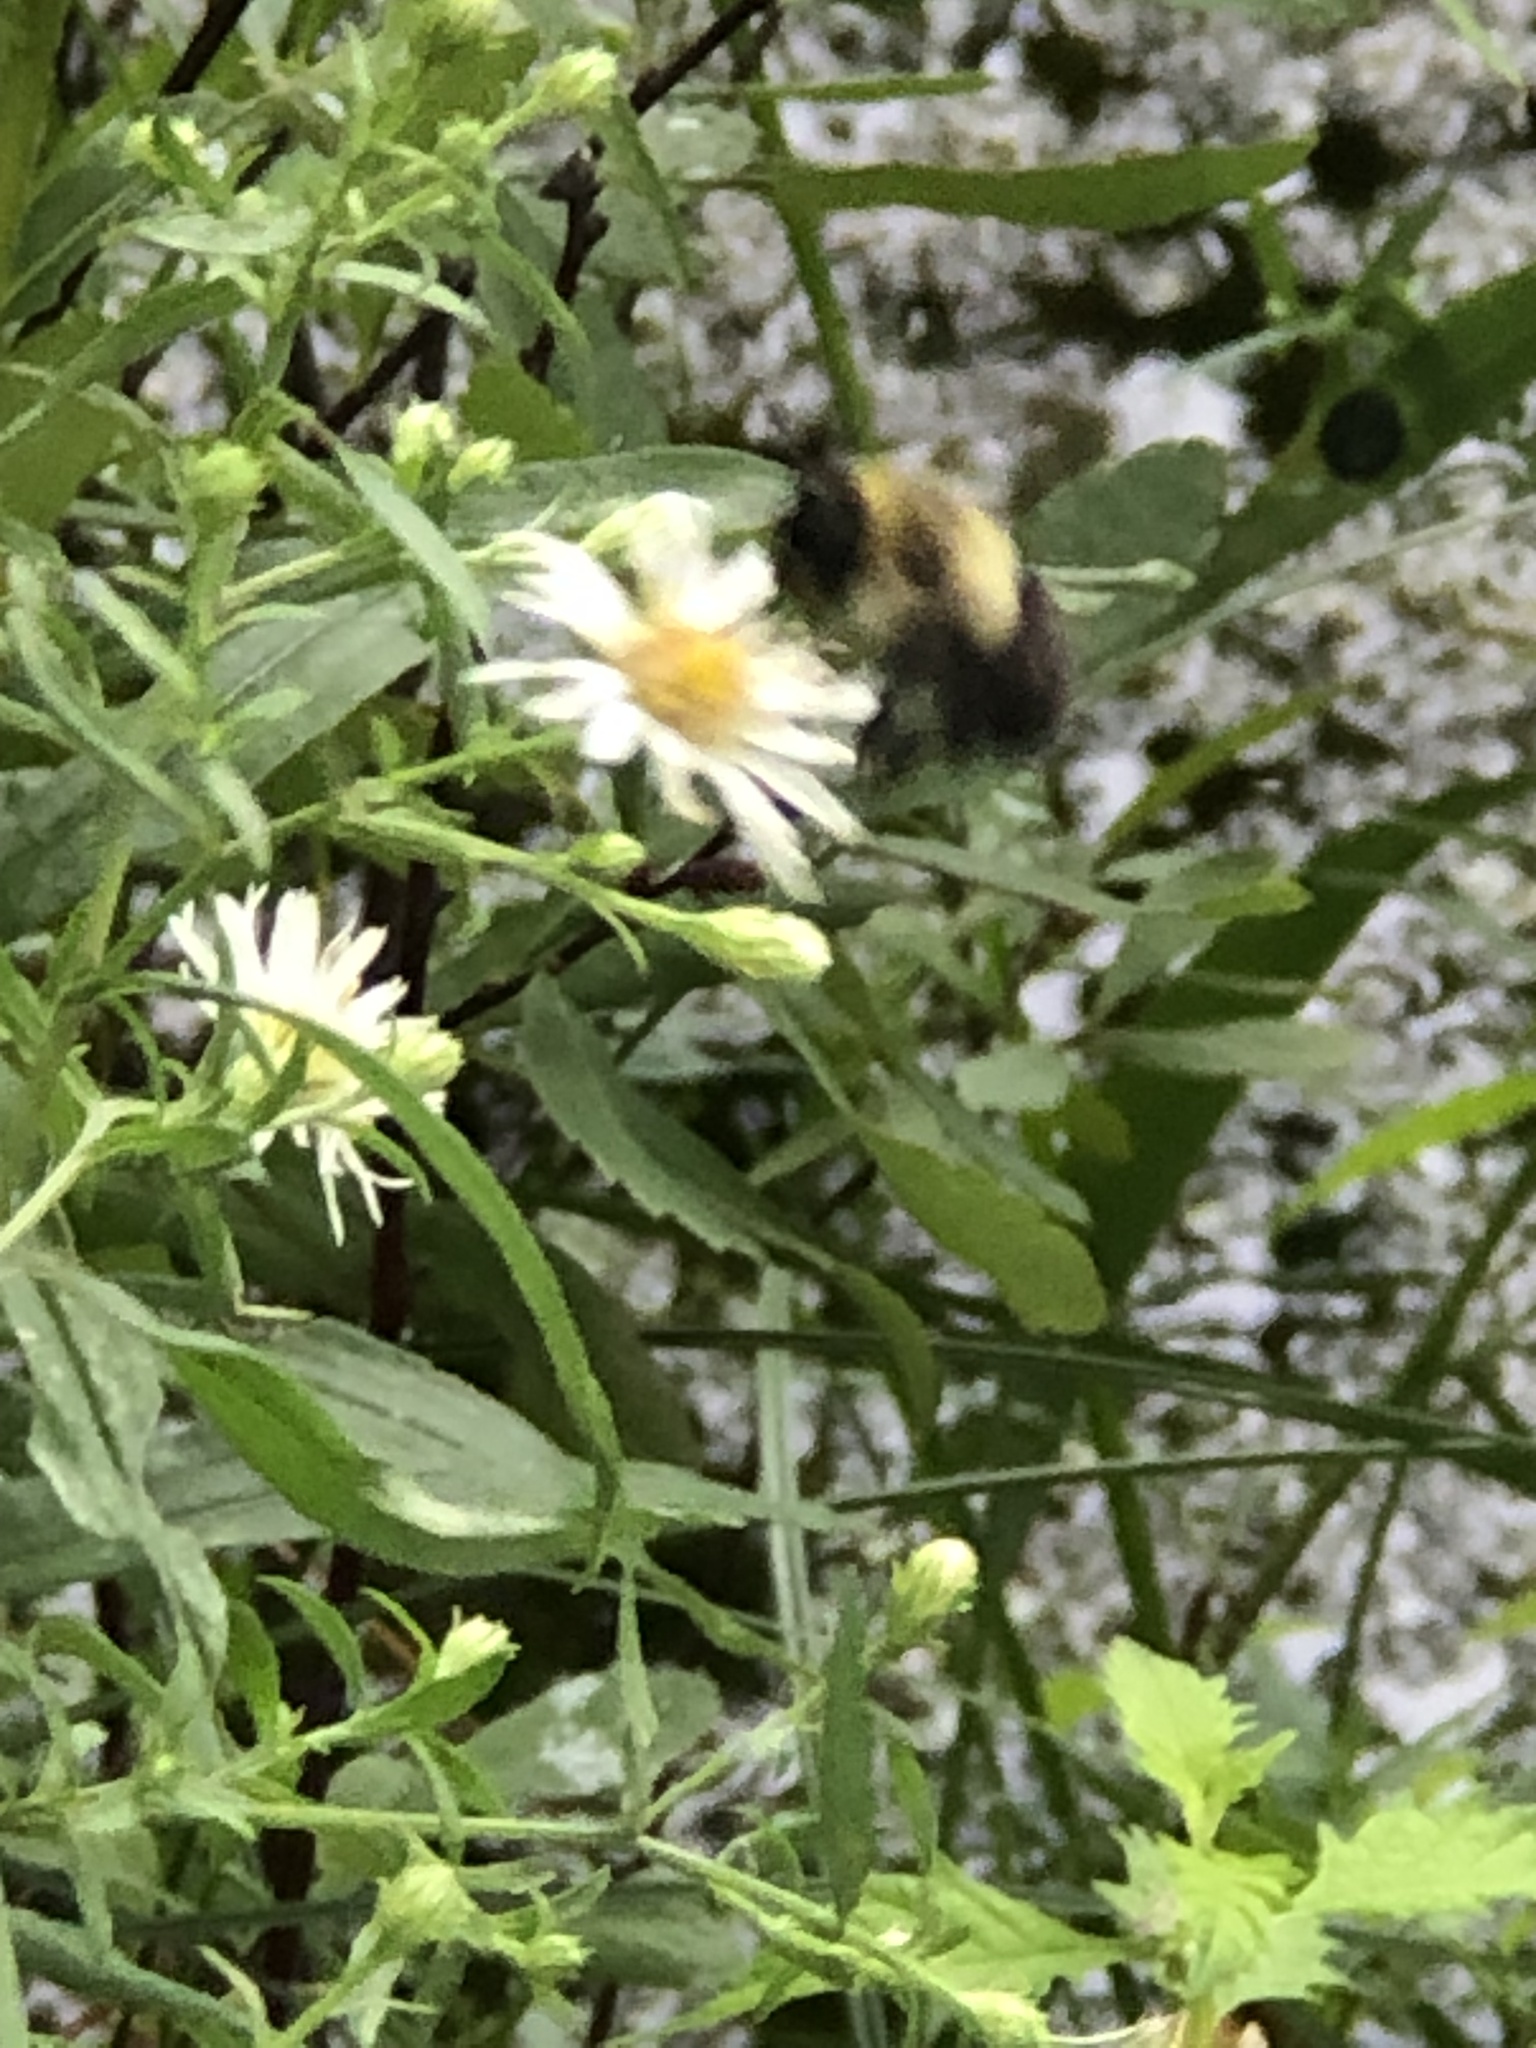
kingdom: Animalia
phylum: Arthropoda
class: Insecta
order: Hymenoptera
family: Apidae
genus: Bombus
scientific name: Bombus impatiens
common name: Common eastern bumble bee
